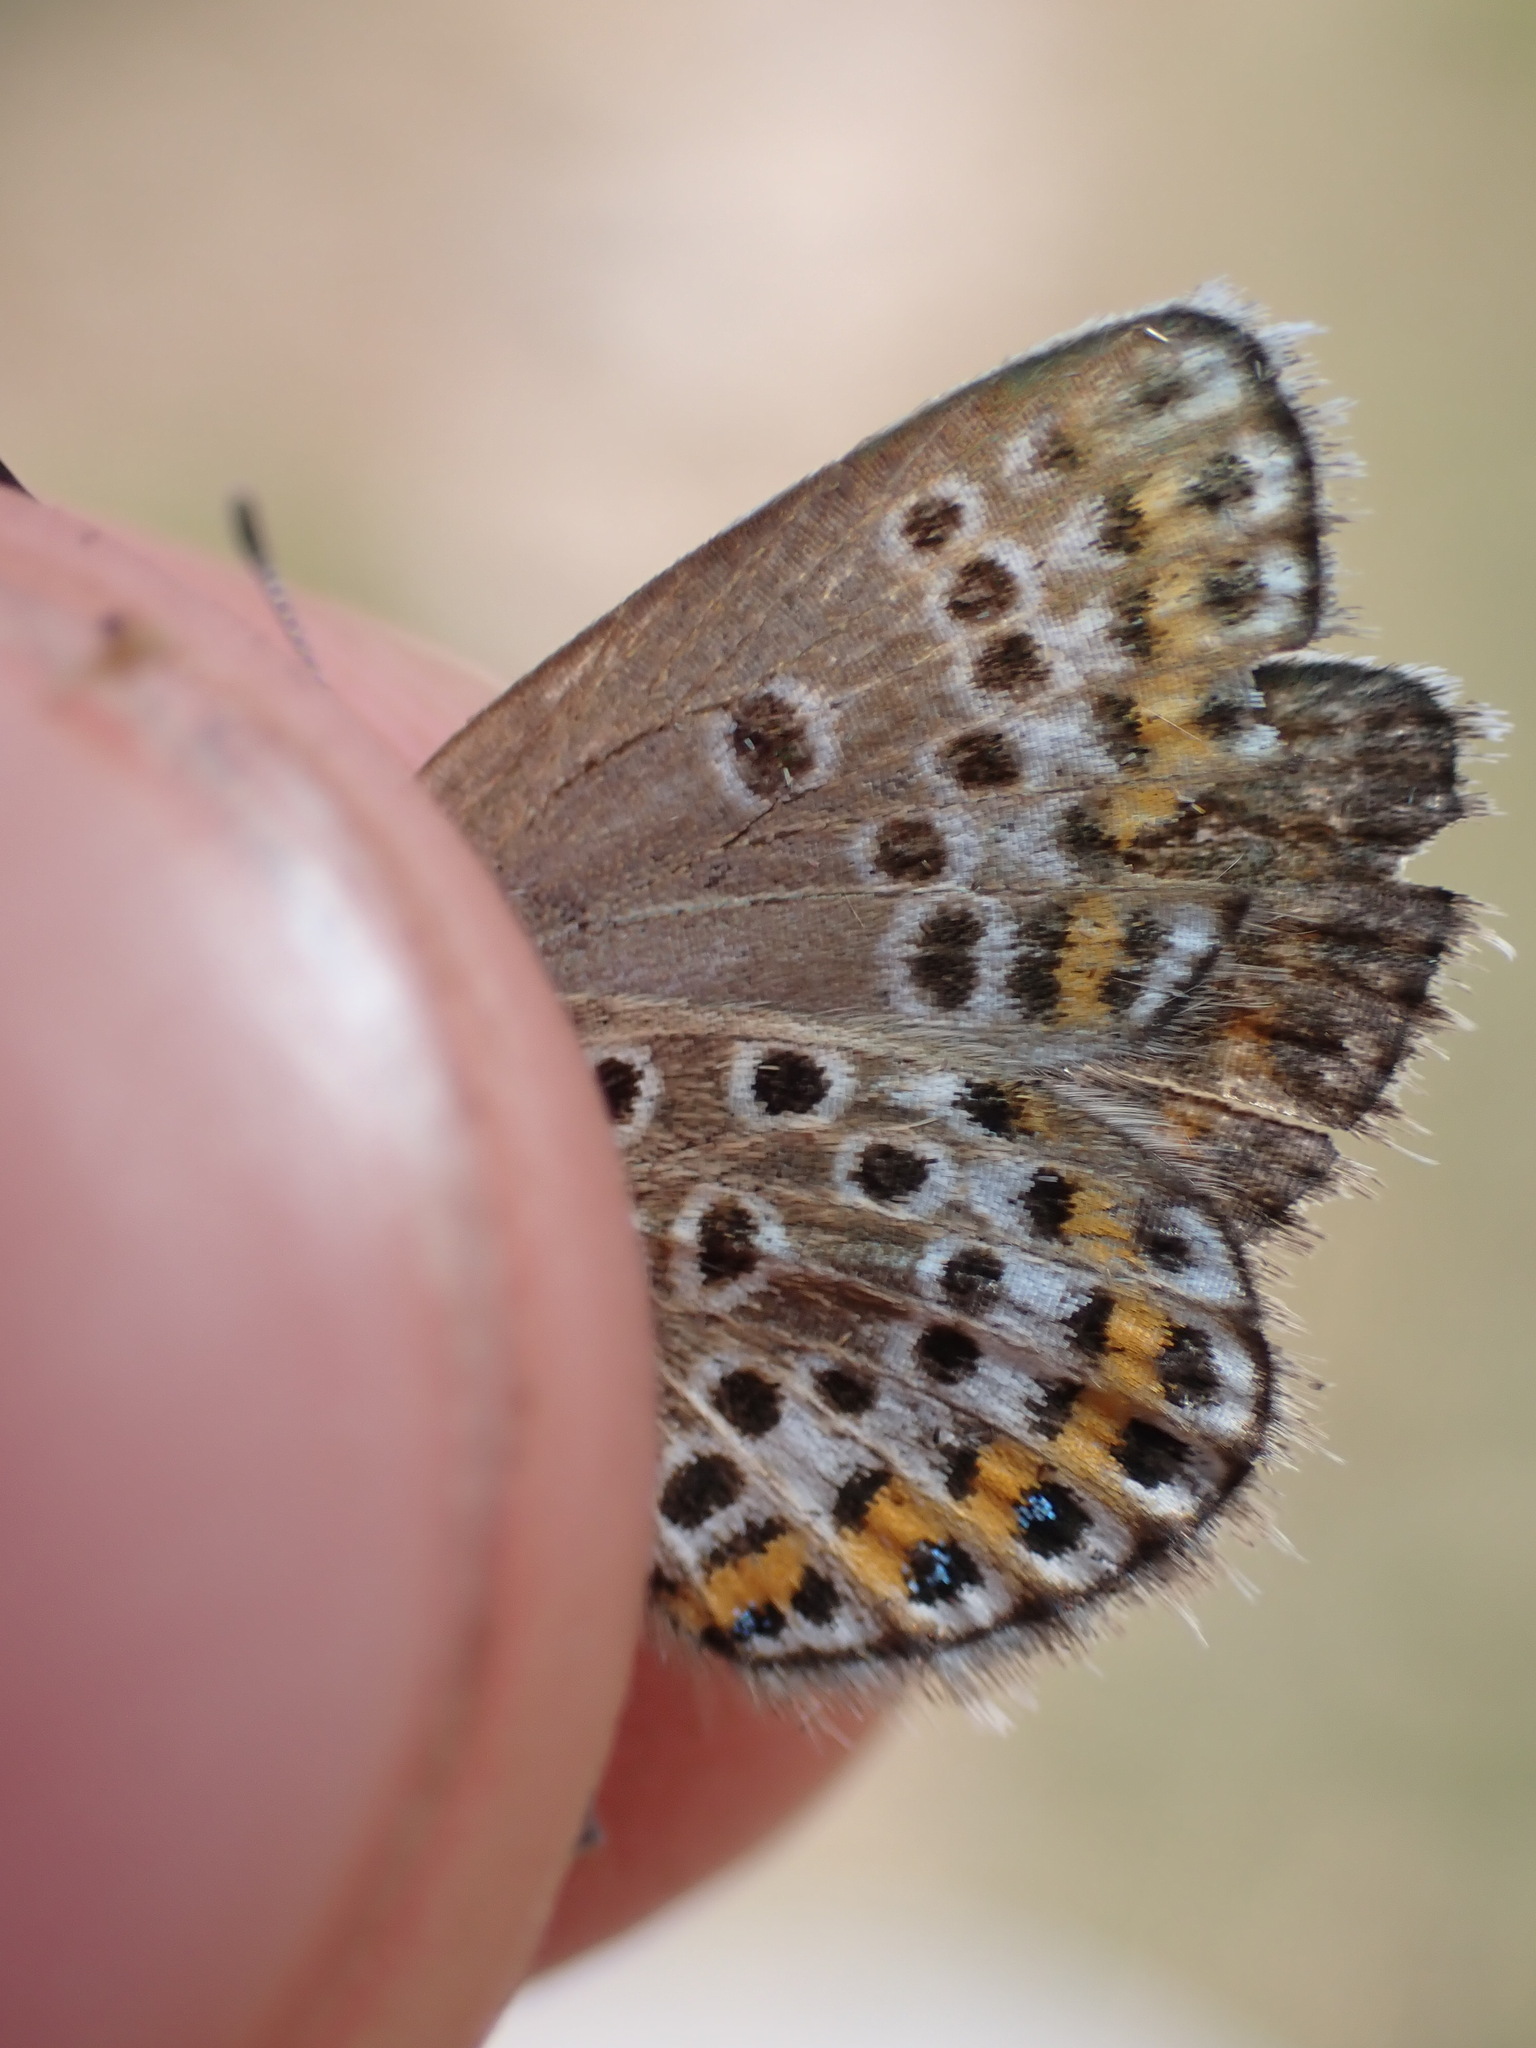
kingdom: Animalia
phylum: Arthropoda
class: Insecta
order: Lepidoptera
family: Lycaenidae
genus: Plebejus
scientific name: Plebejus argus
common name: Silver-studded blue
